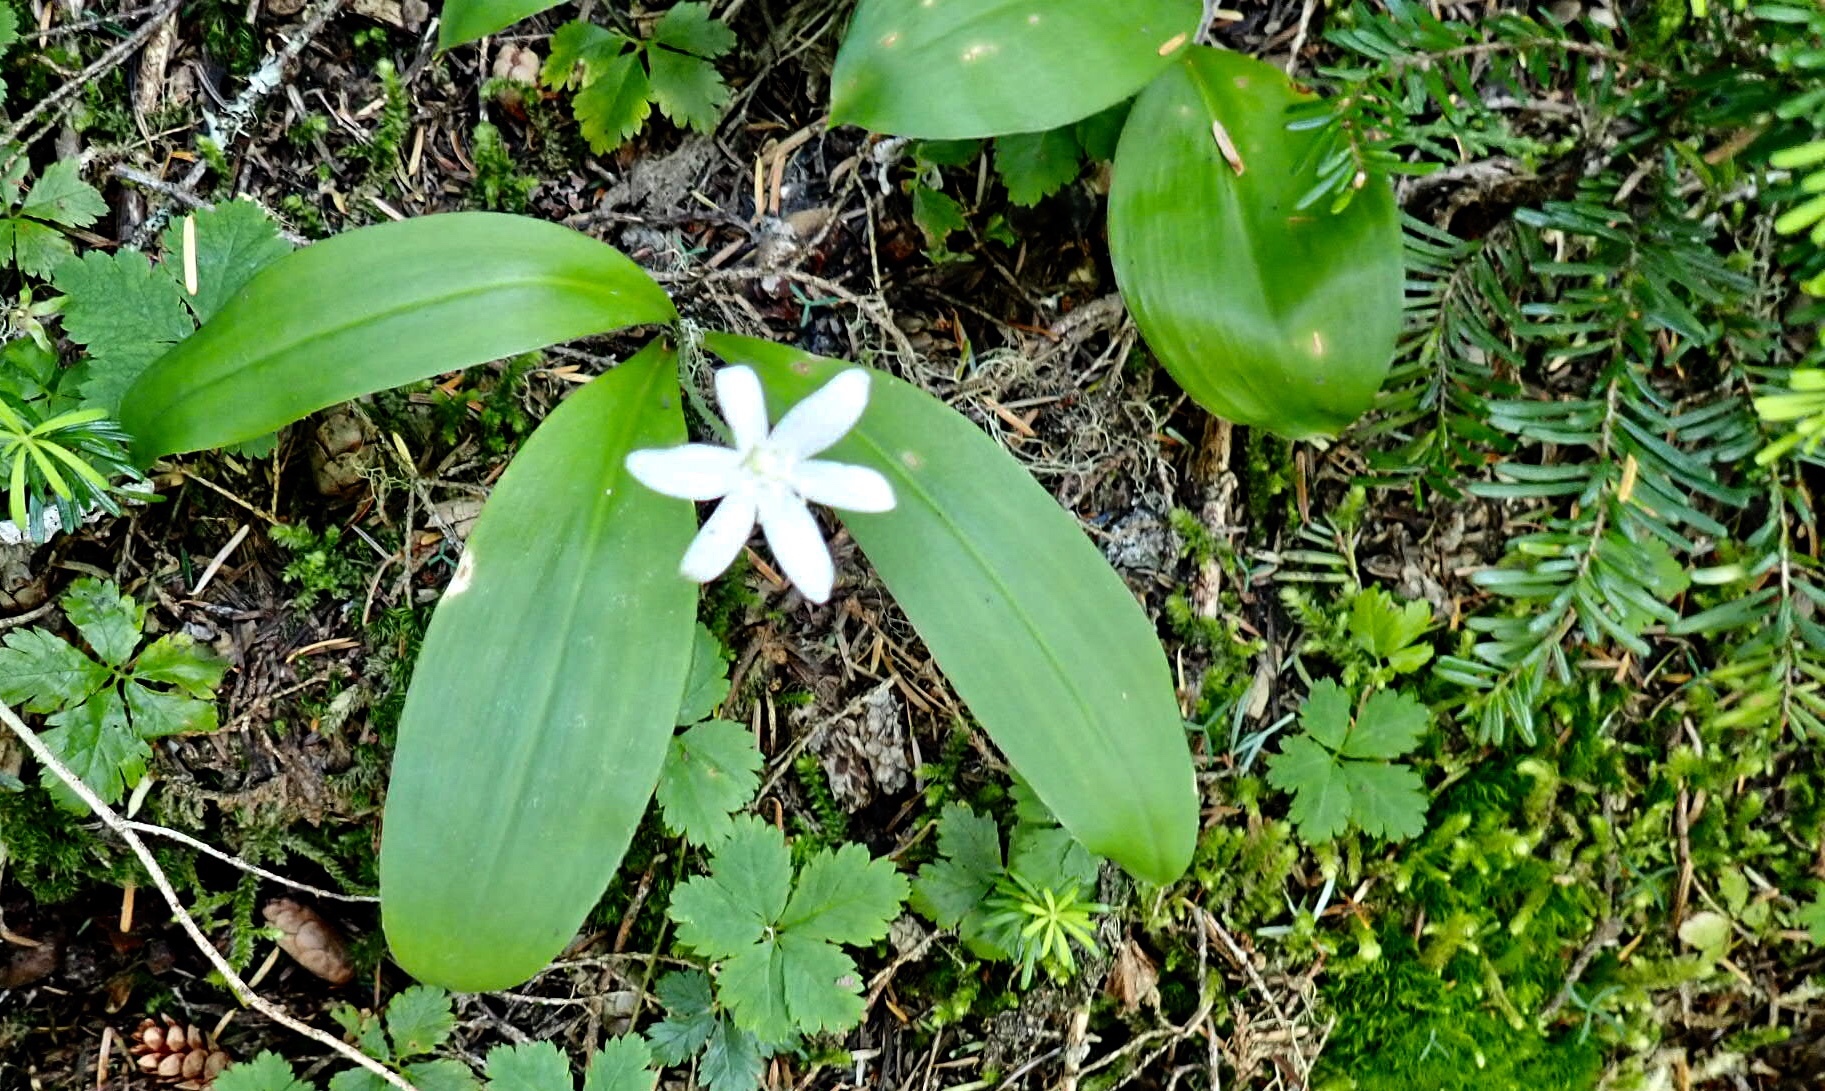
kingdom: Plantae
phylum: Tracheophyta
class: Liliopsida
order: Liliales
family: Liliaceae
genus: Clintonia
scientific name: Clintonia uniflora
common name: Queen's cup
